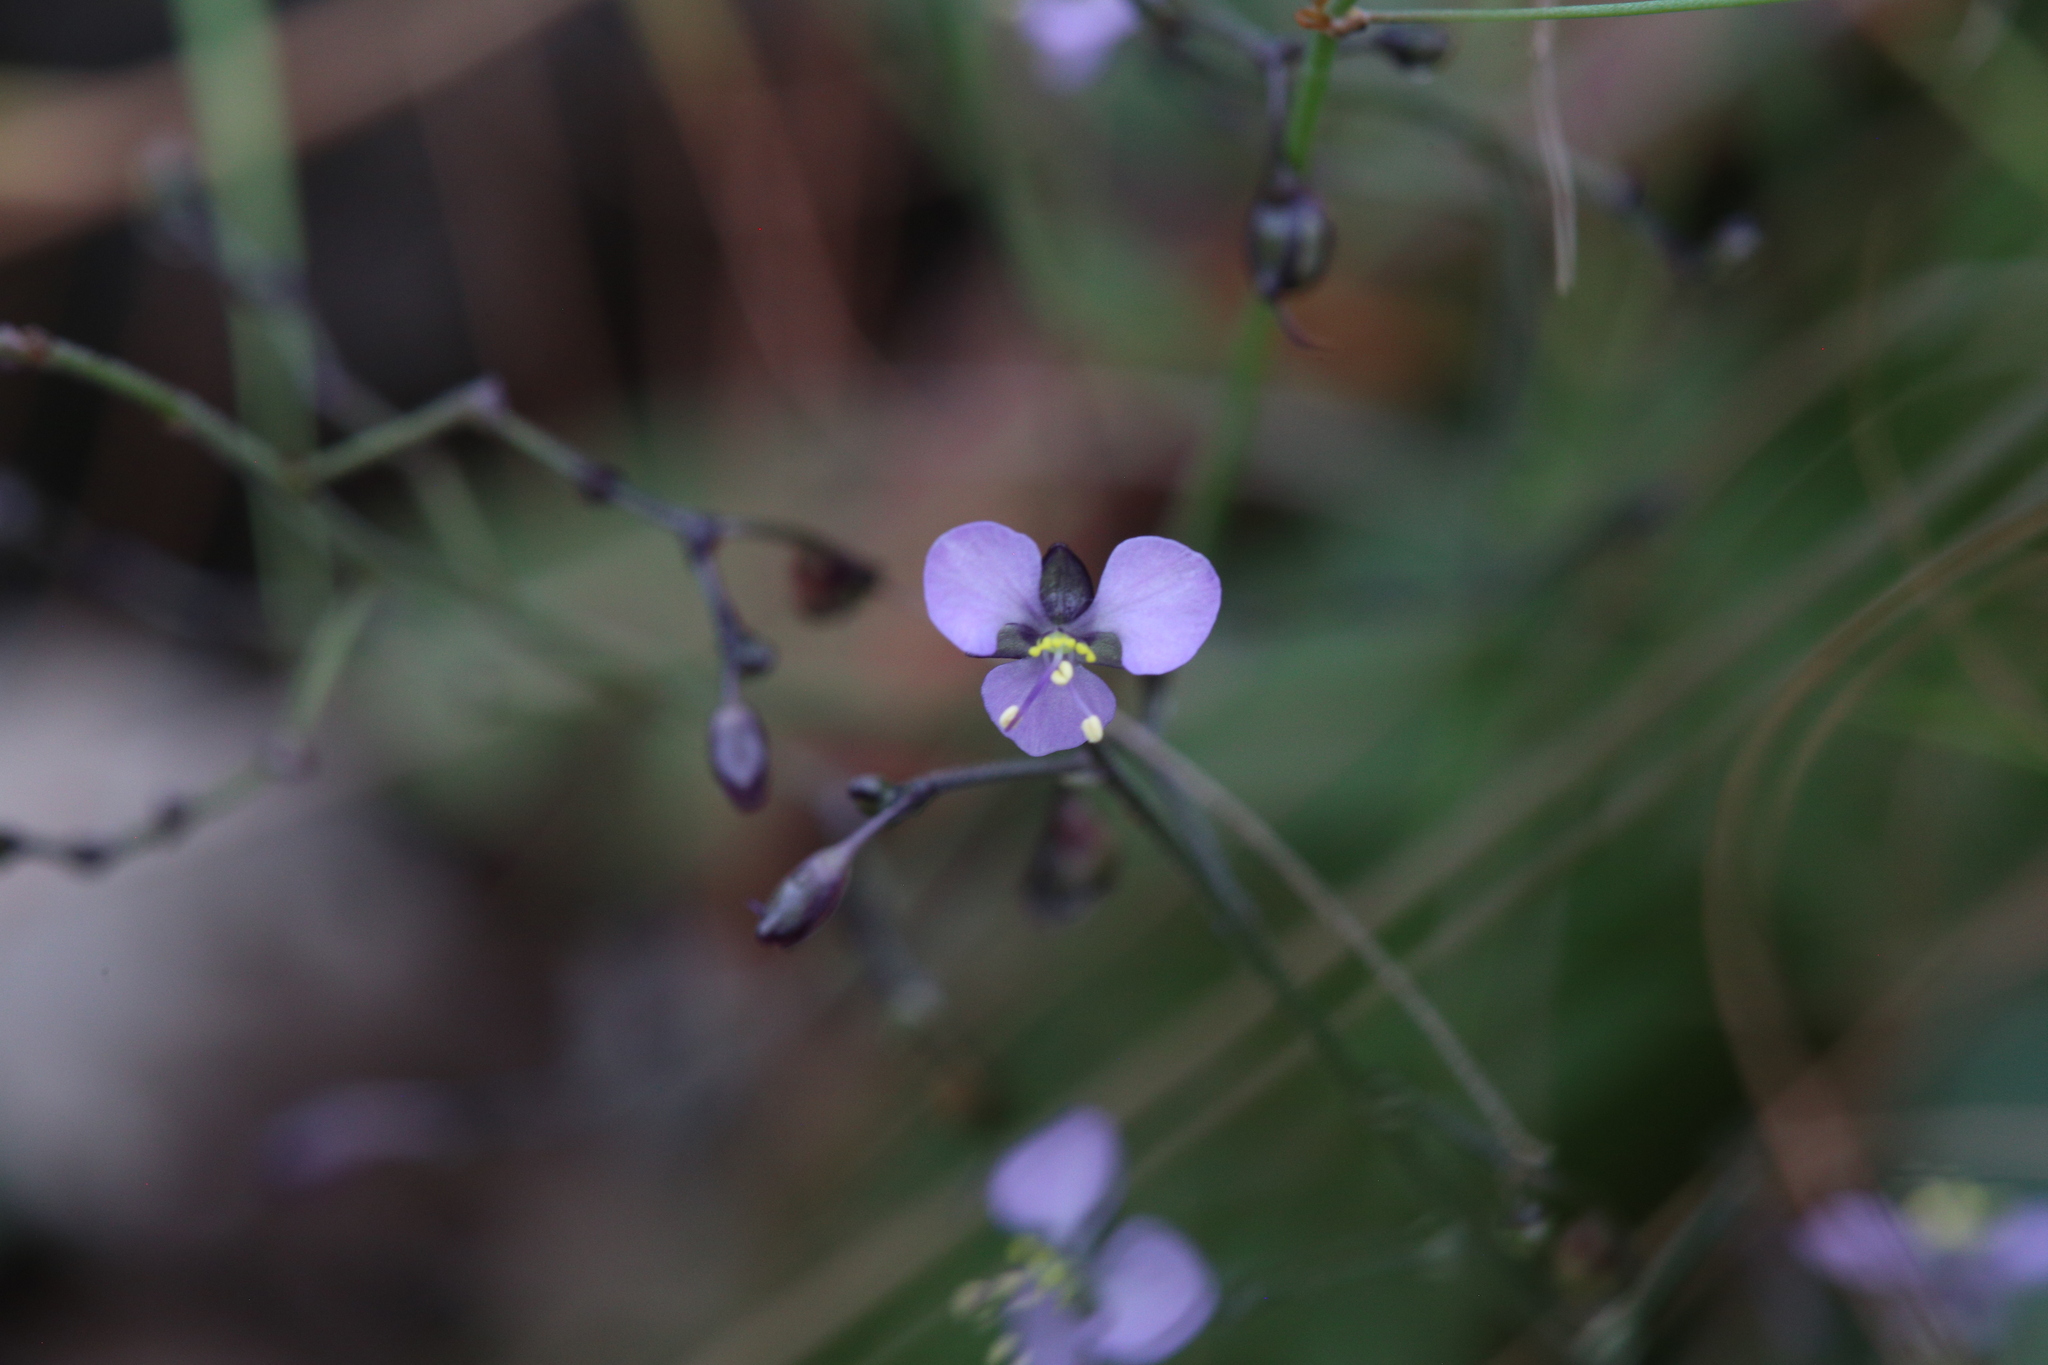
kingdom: Plantae
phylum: Tracheophyta
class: Liliopsida
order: Commelinales
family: Commelinaceae
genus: Aneilema
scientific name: Aneilema siliculosum
